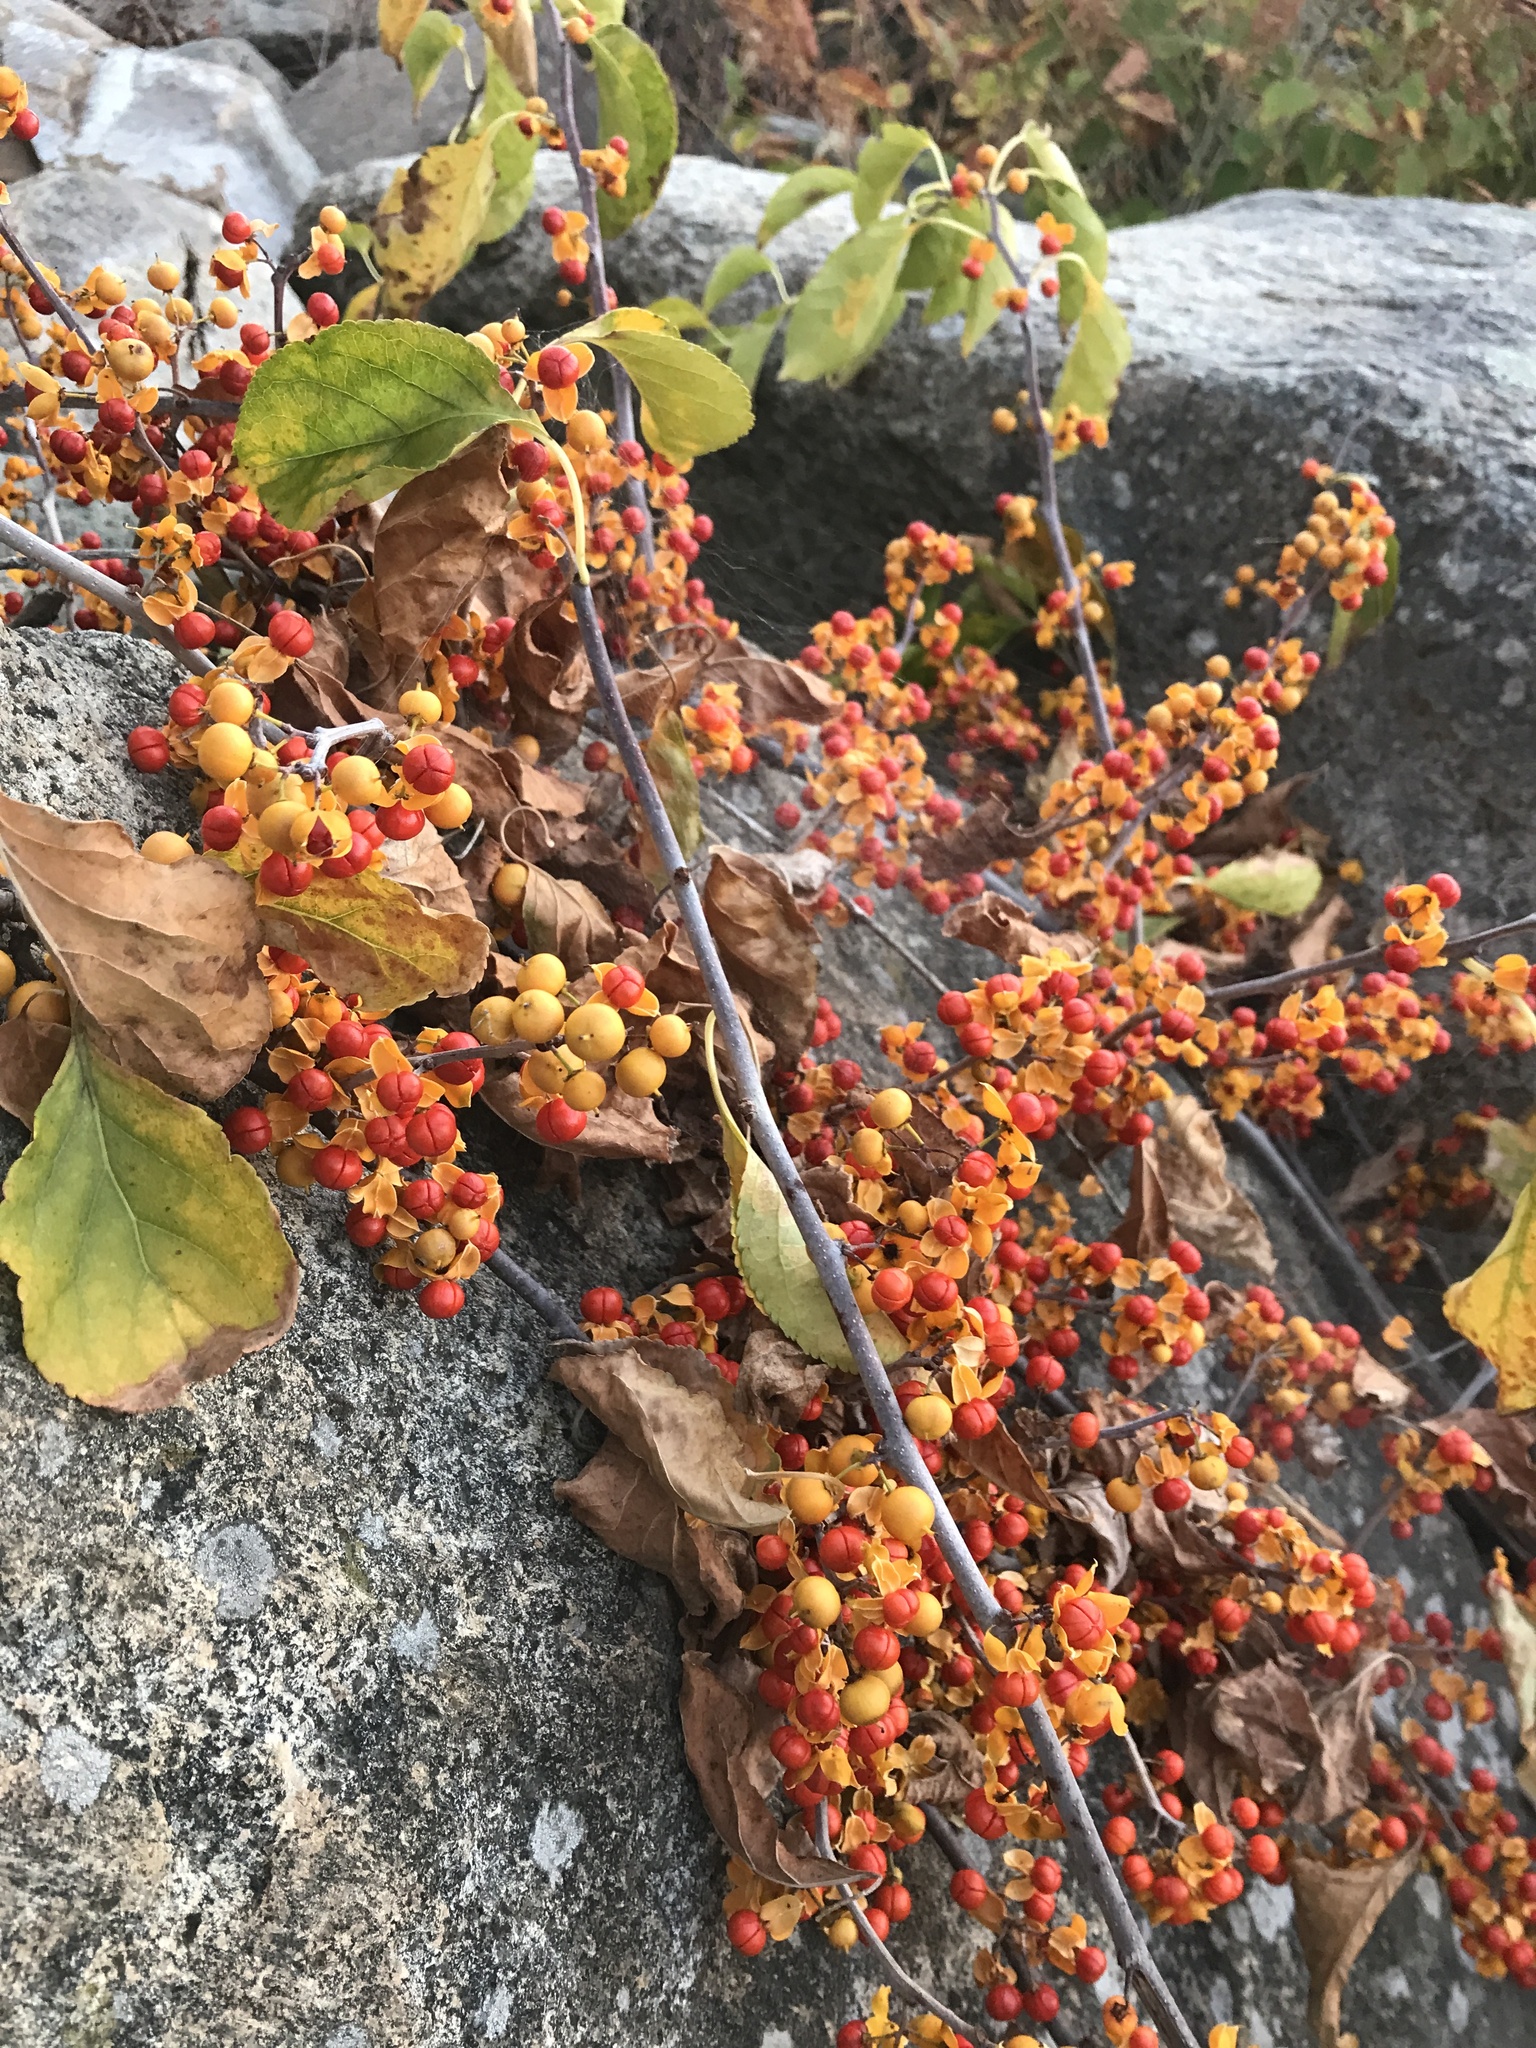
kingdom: Plantae
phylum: Tracheophyta
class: Magnoliopsida
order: Celastrales
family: Celastraceae
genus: Celastrus
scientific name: Celastrus orbiculatus
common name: Oriental bittersweet
